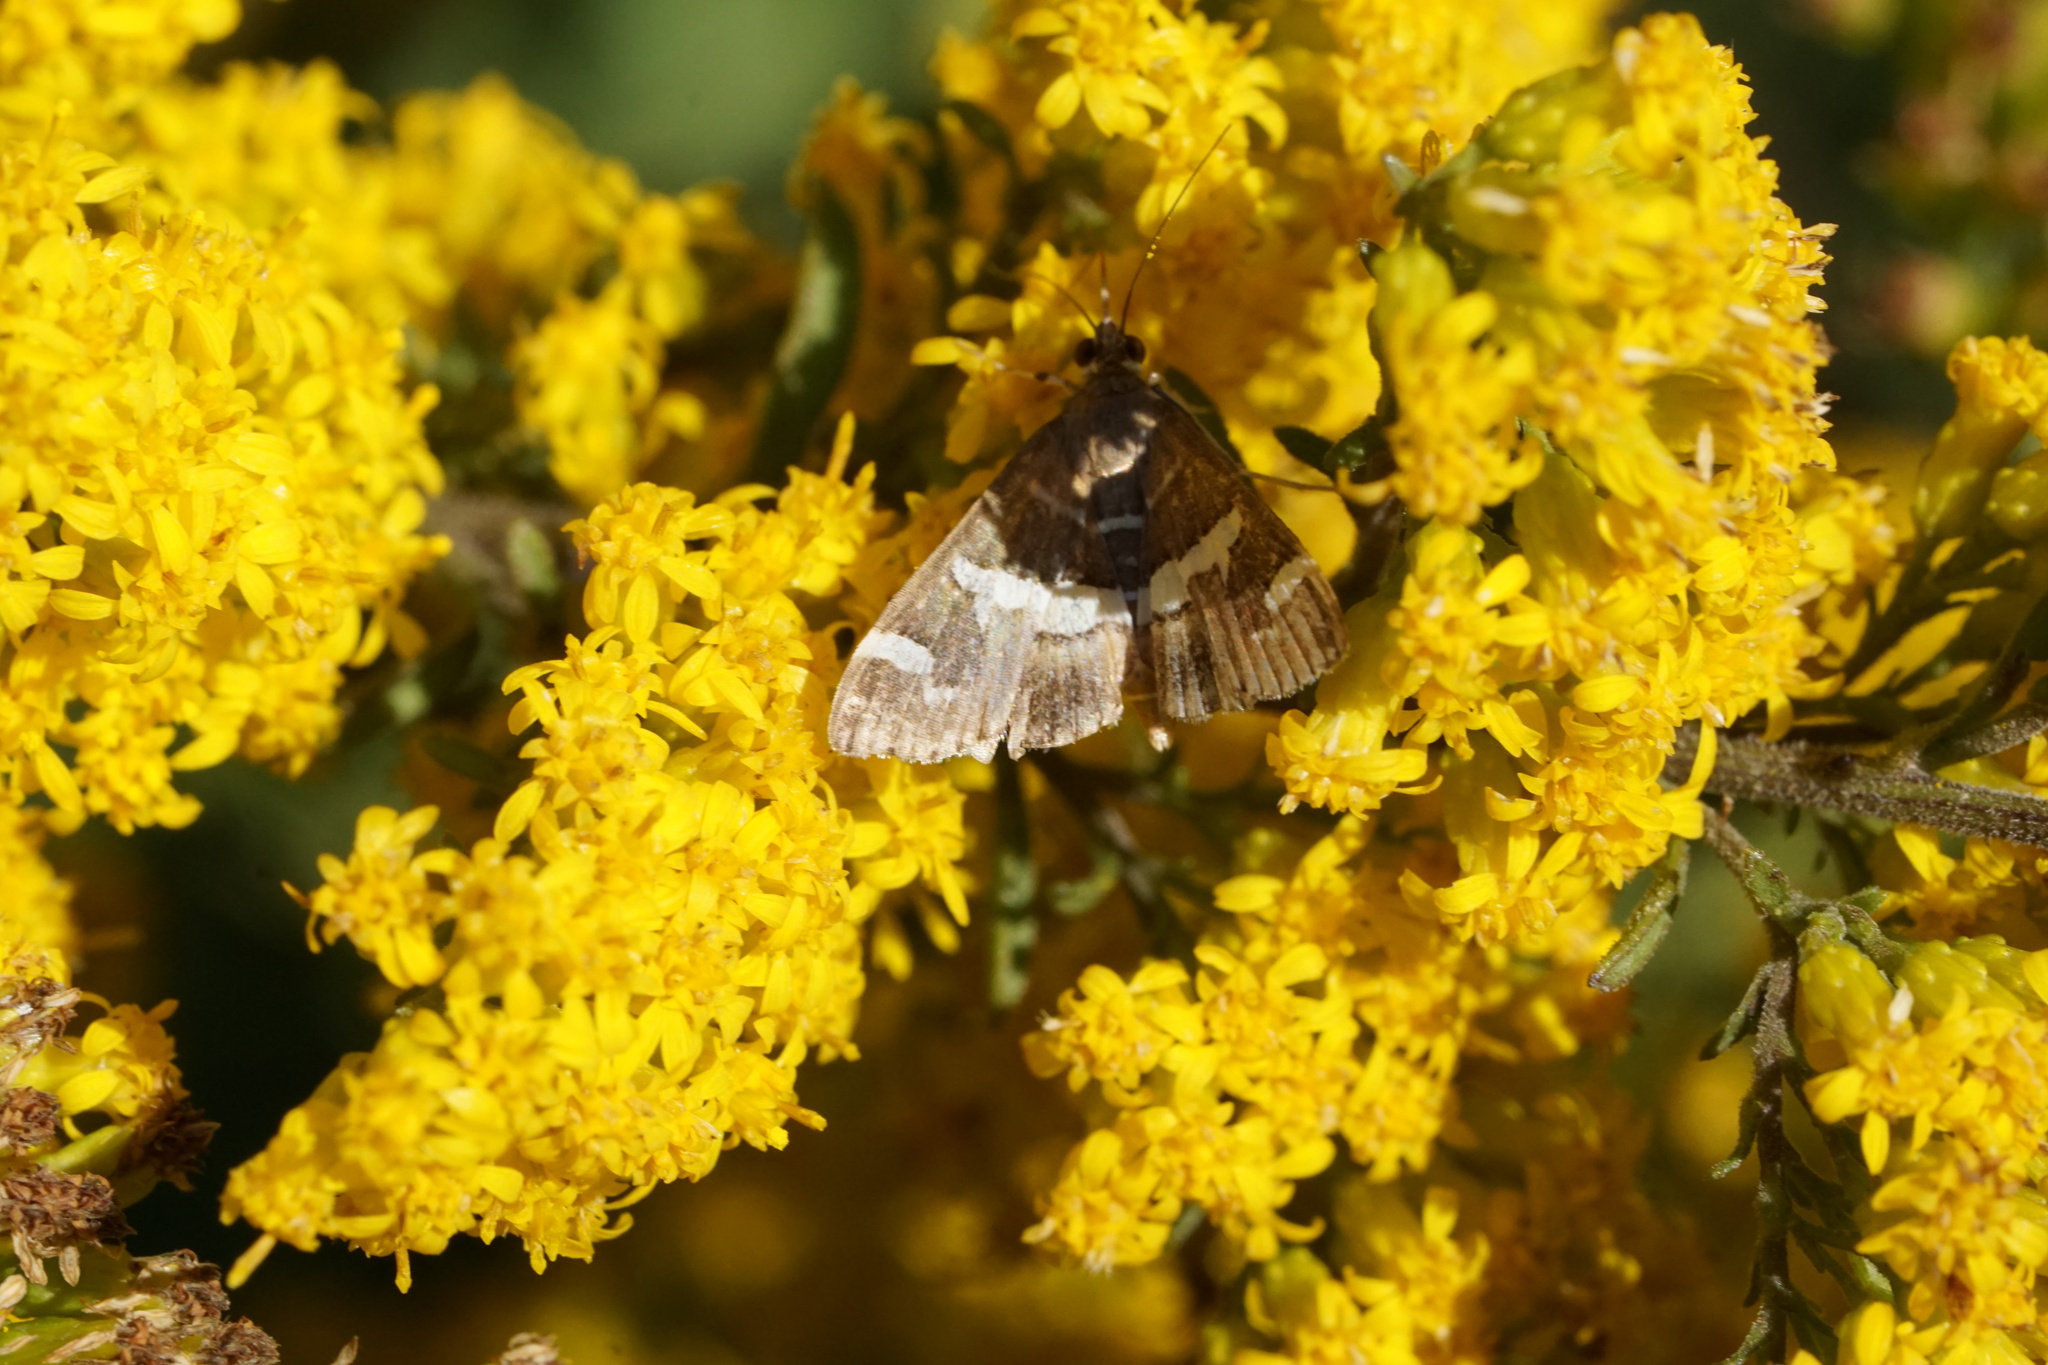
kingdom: Animalia
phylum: Arthropoda
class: Insecta
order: Lepidoptera
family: Crambidae
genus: Spoladea
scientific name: Spoladea recurvalis
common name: Beet webworm moth
